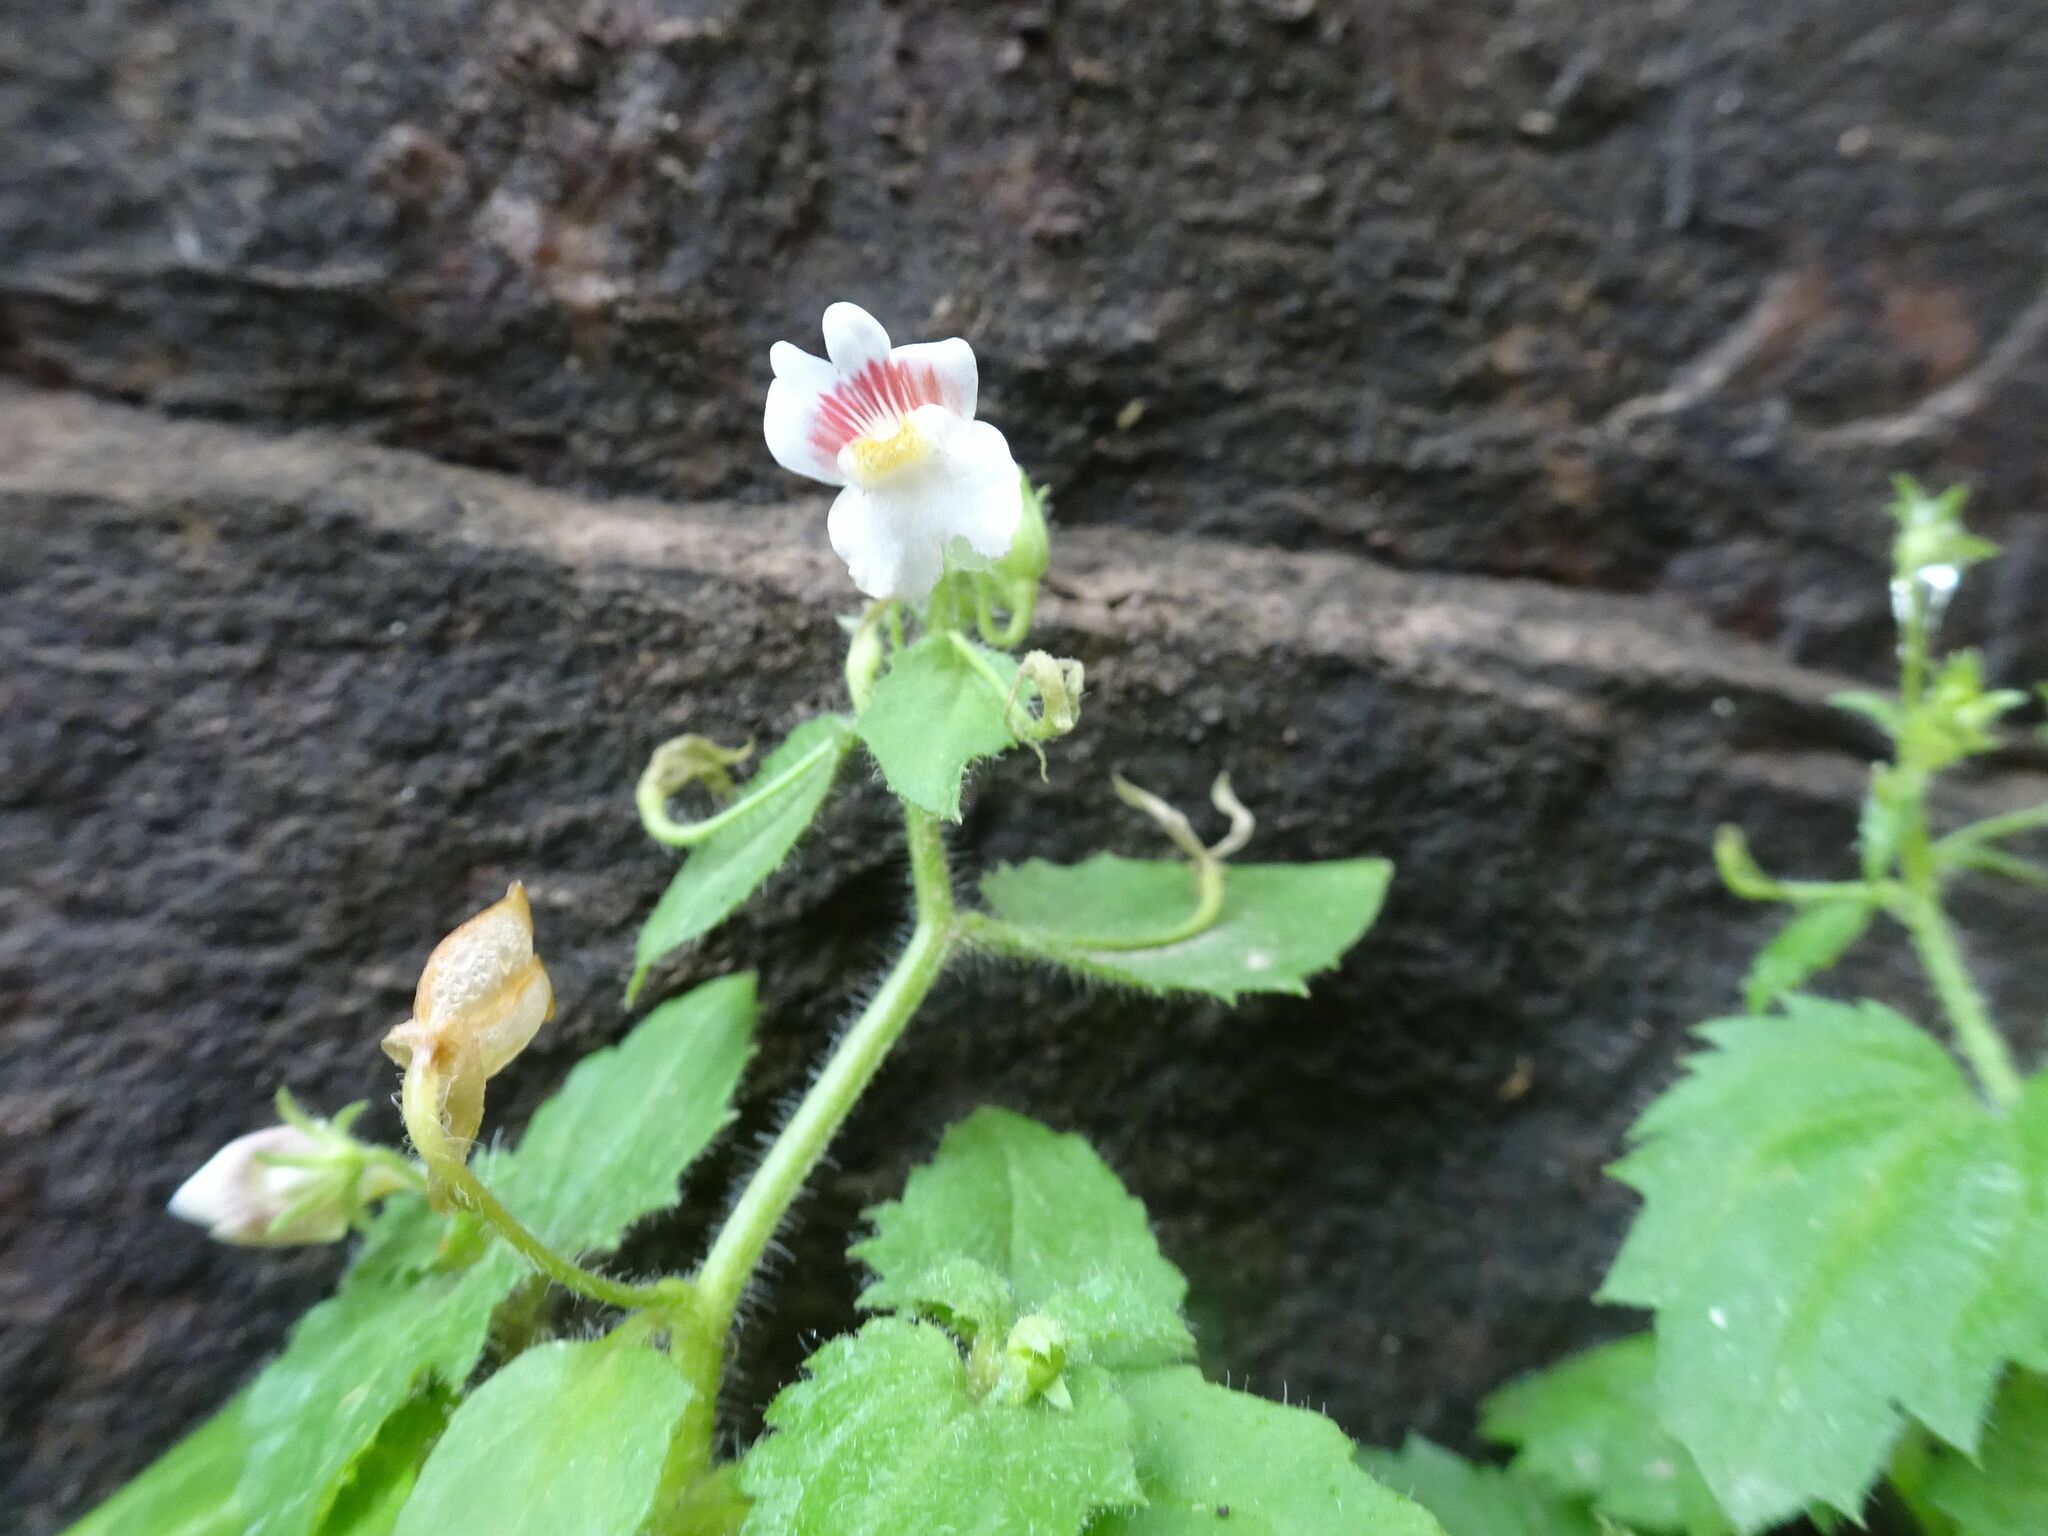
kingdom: Plantae
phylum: Tracheophyta
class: Magnoliopsida
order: Lamiales
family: Scrophulariaceae
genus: Nemesia
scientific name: Nemesia deflexa
